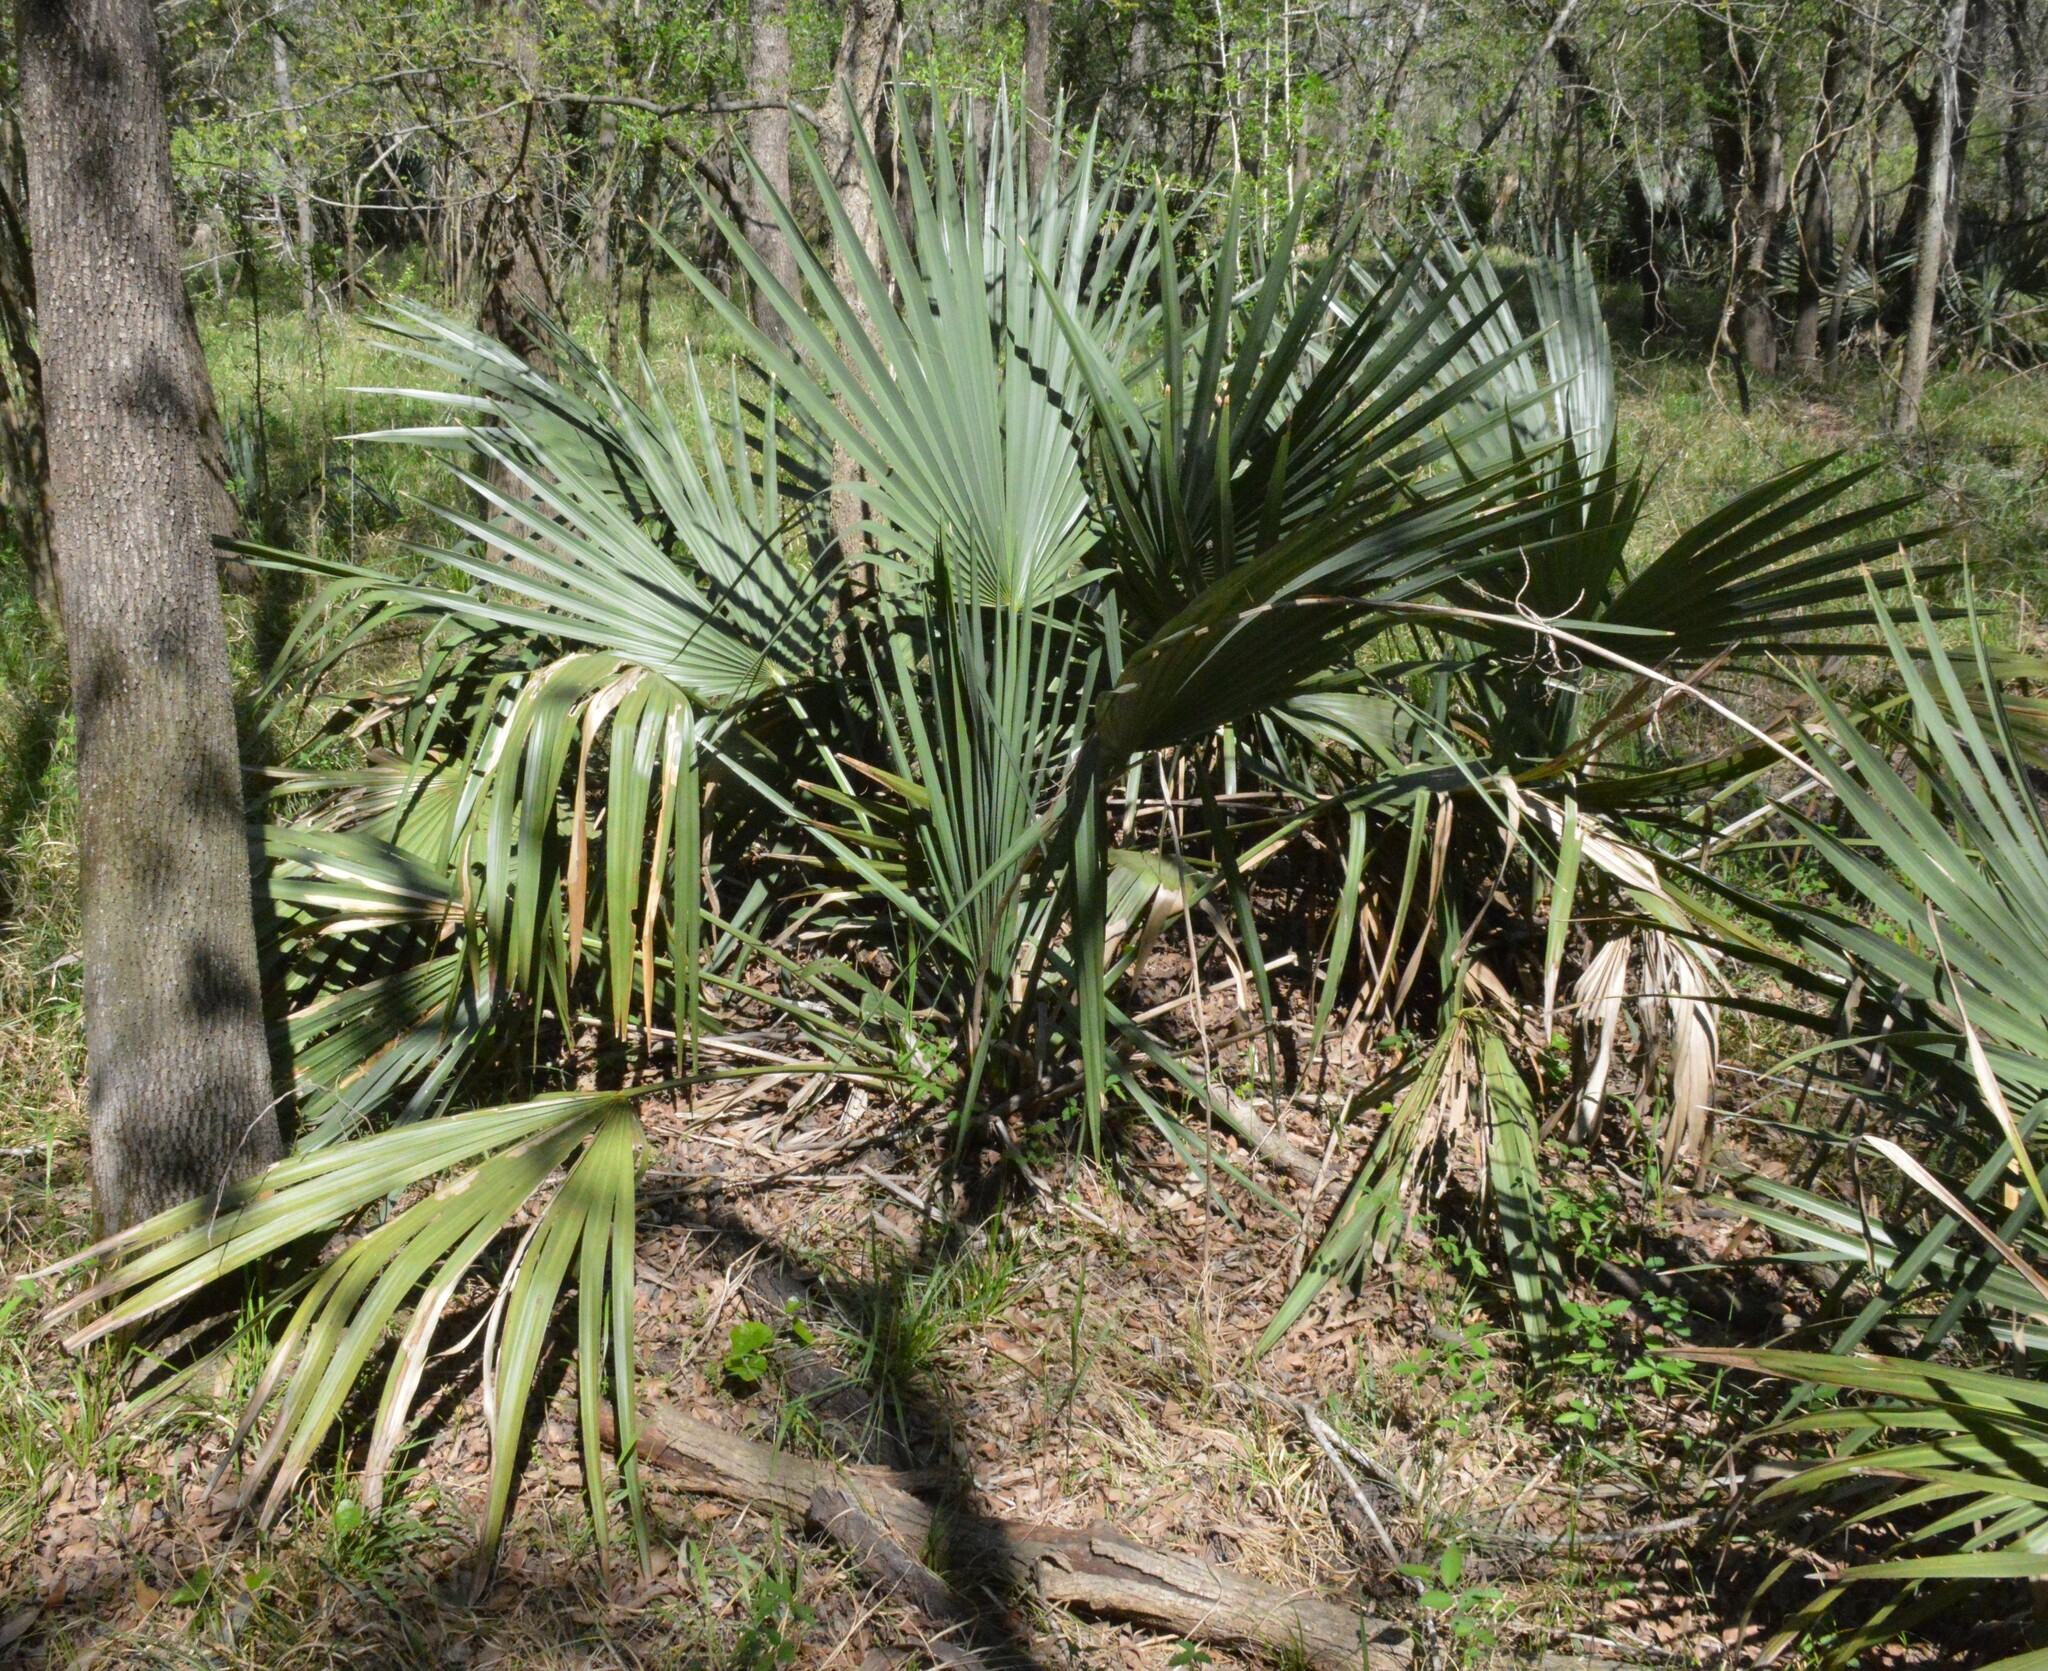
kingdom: Plantae
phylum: Tracheophyta
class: Liliopsida
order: Arecales
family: Arecaceae
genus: Sabal
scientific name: Sabal minor
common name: Dwarf palmetto
